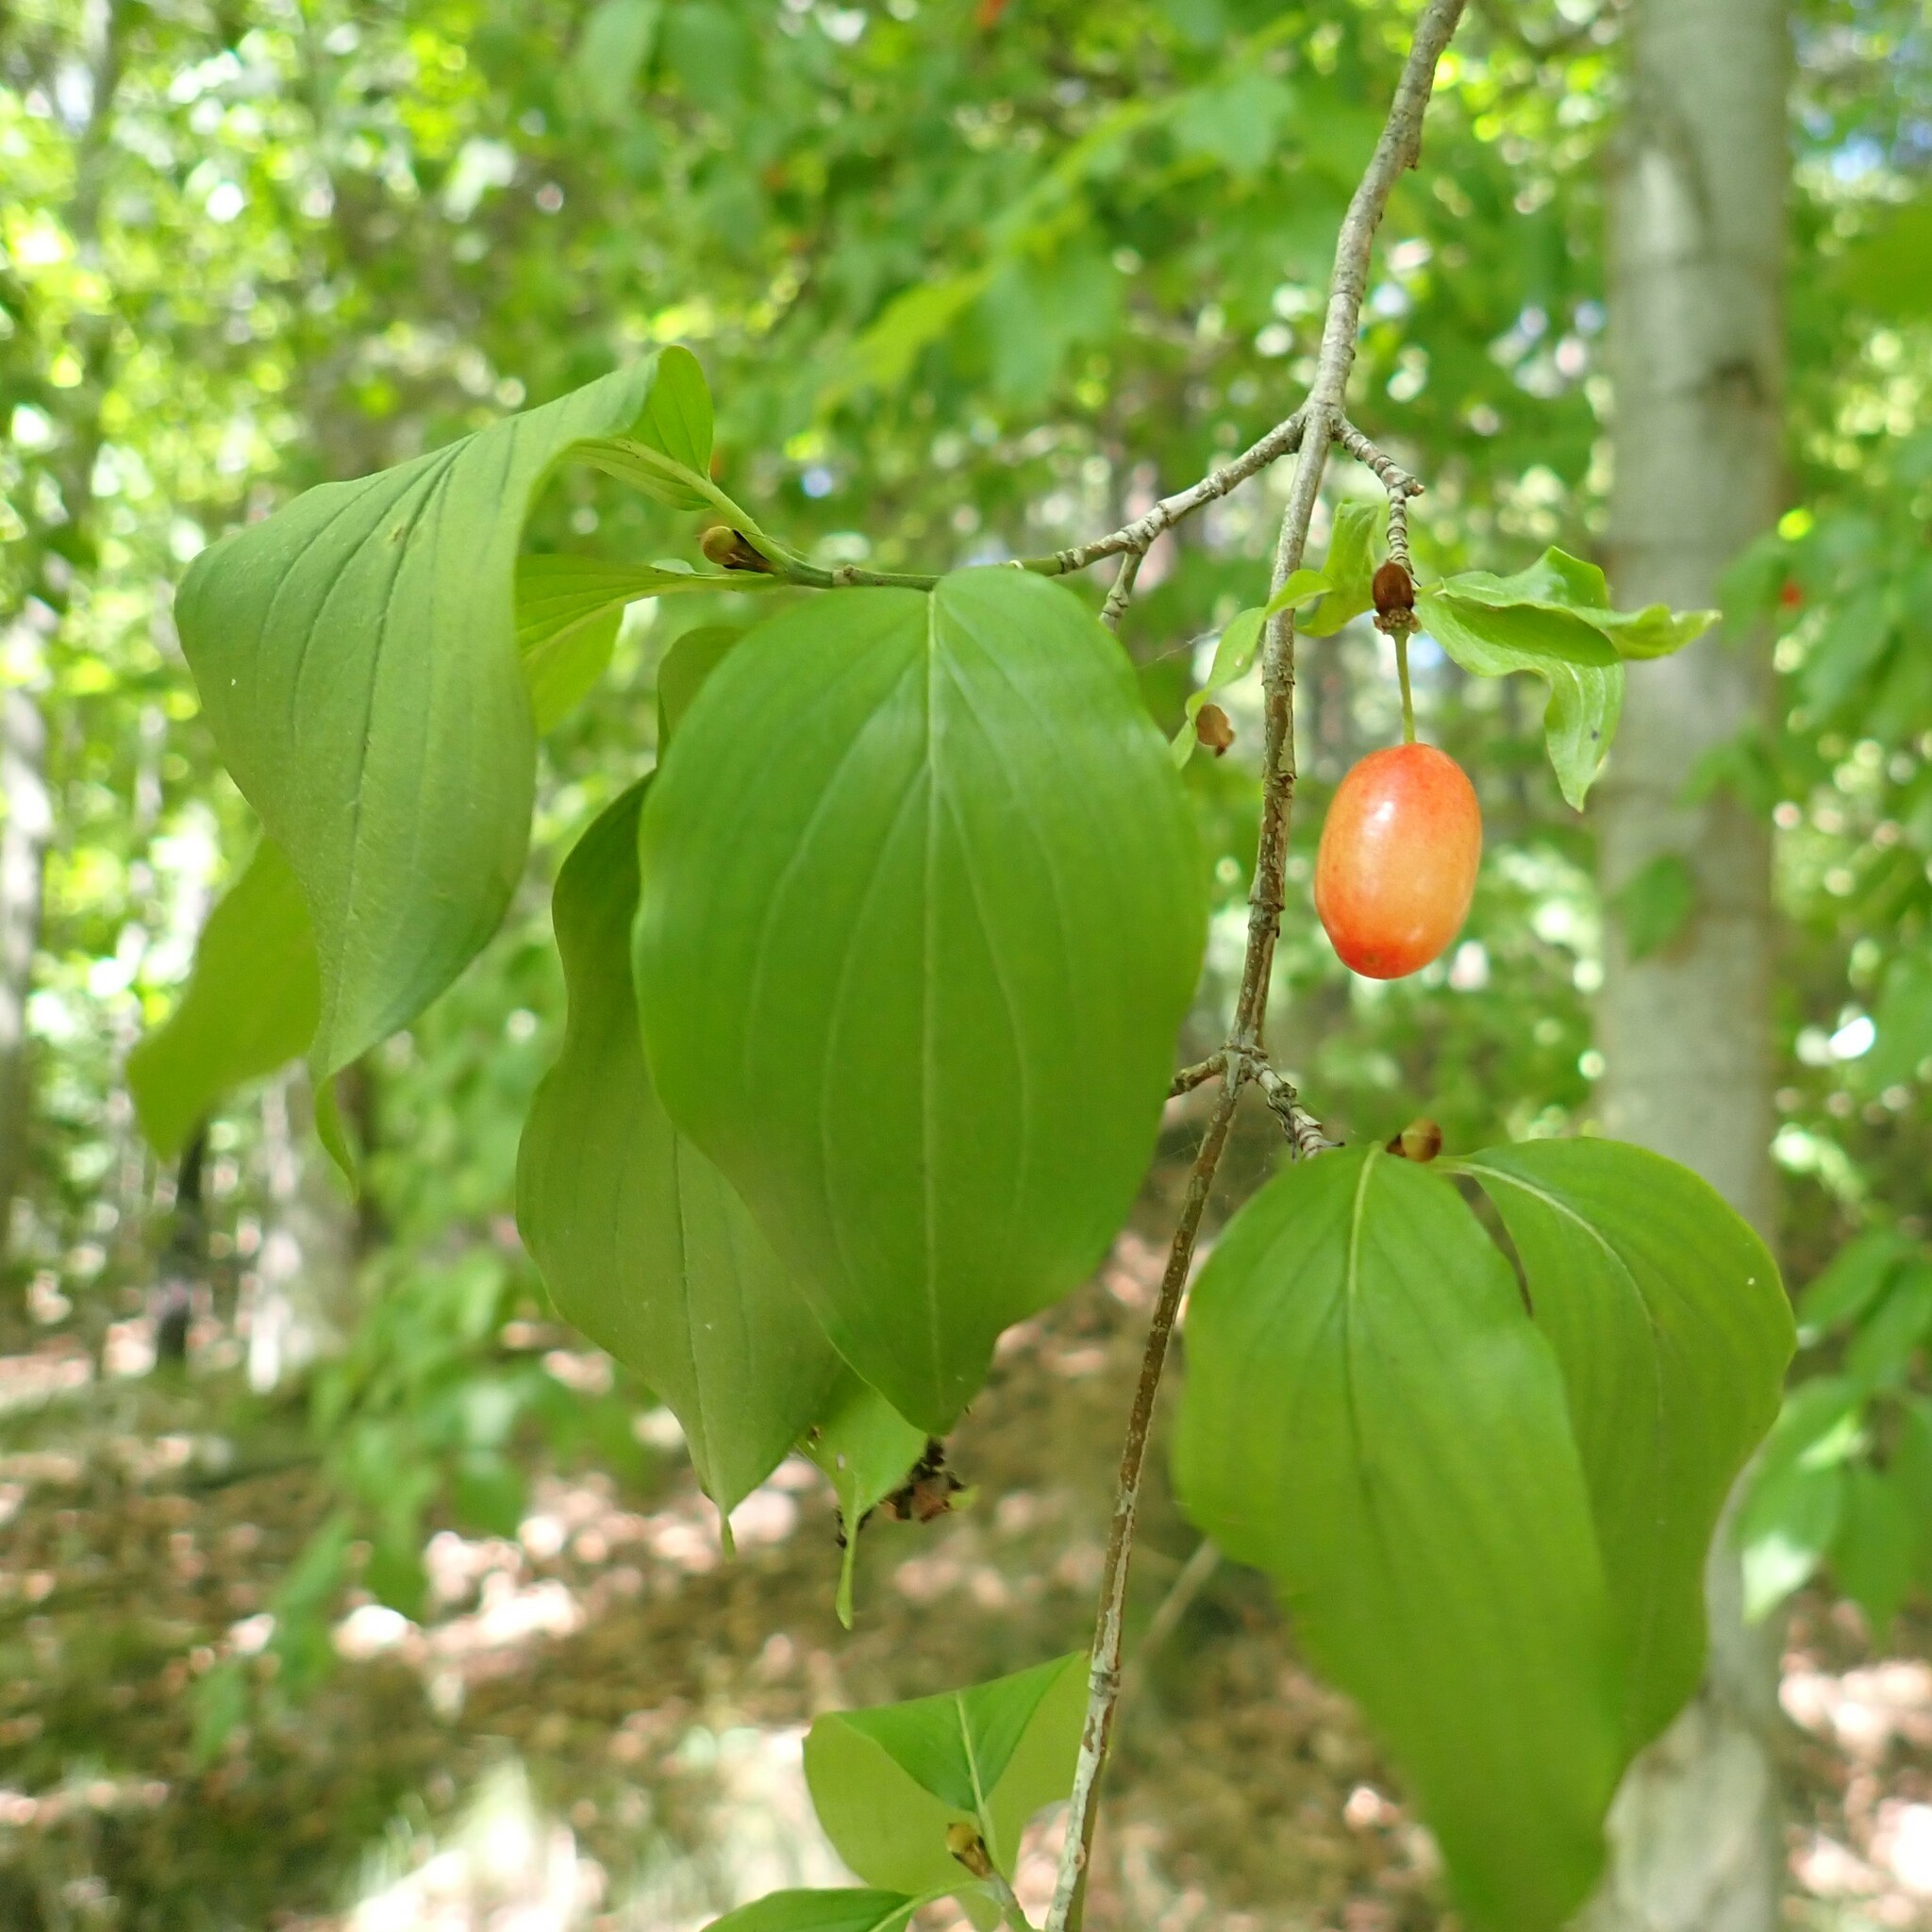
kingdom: Plantae
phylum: Tracheophyta
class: Magnoliopsida
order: Cornales
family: Cornaceae
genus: Cornus
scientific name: Cornus mas
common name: Cornelian-cherry
